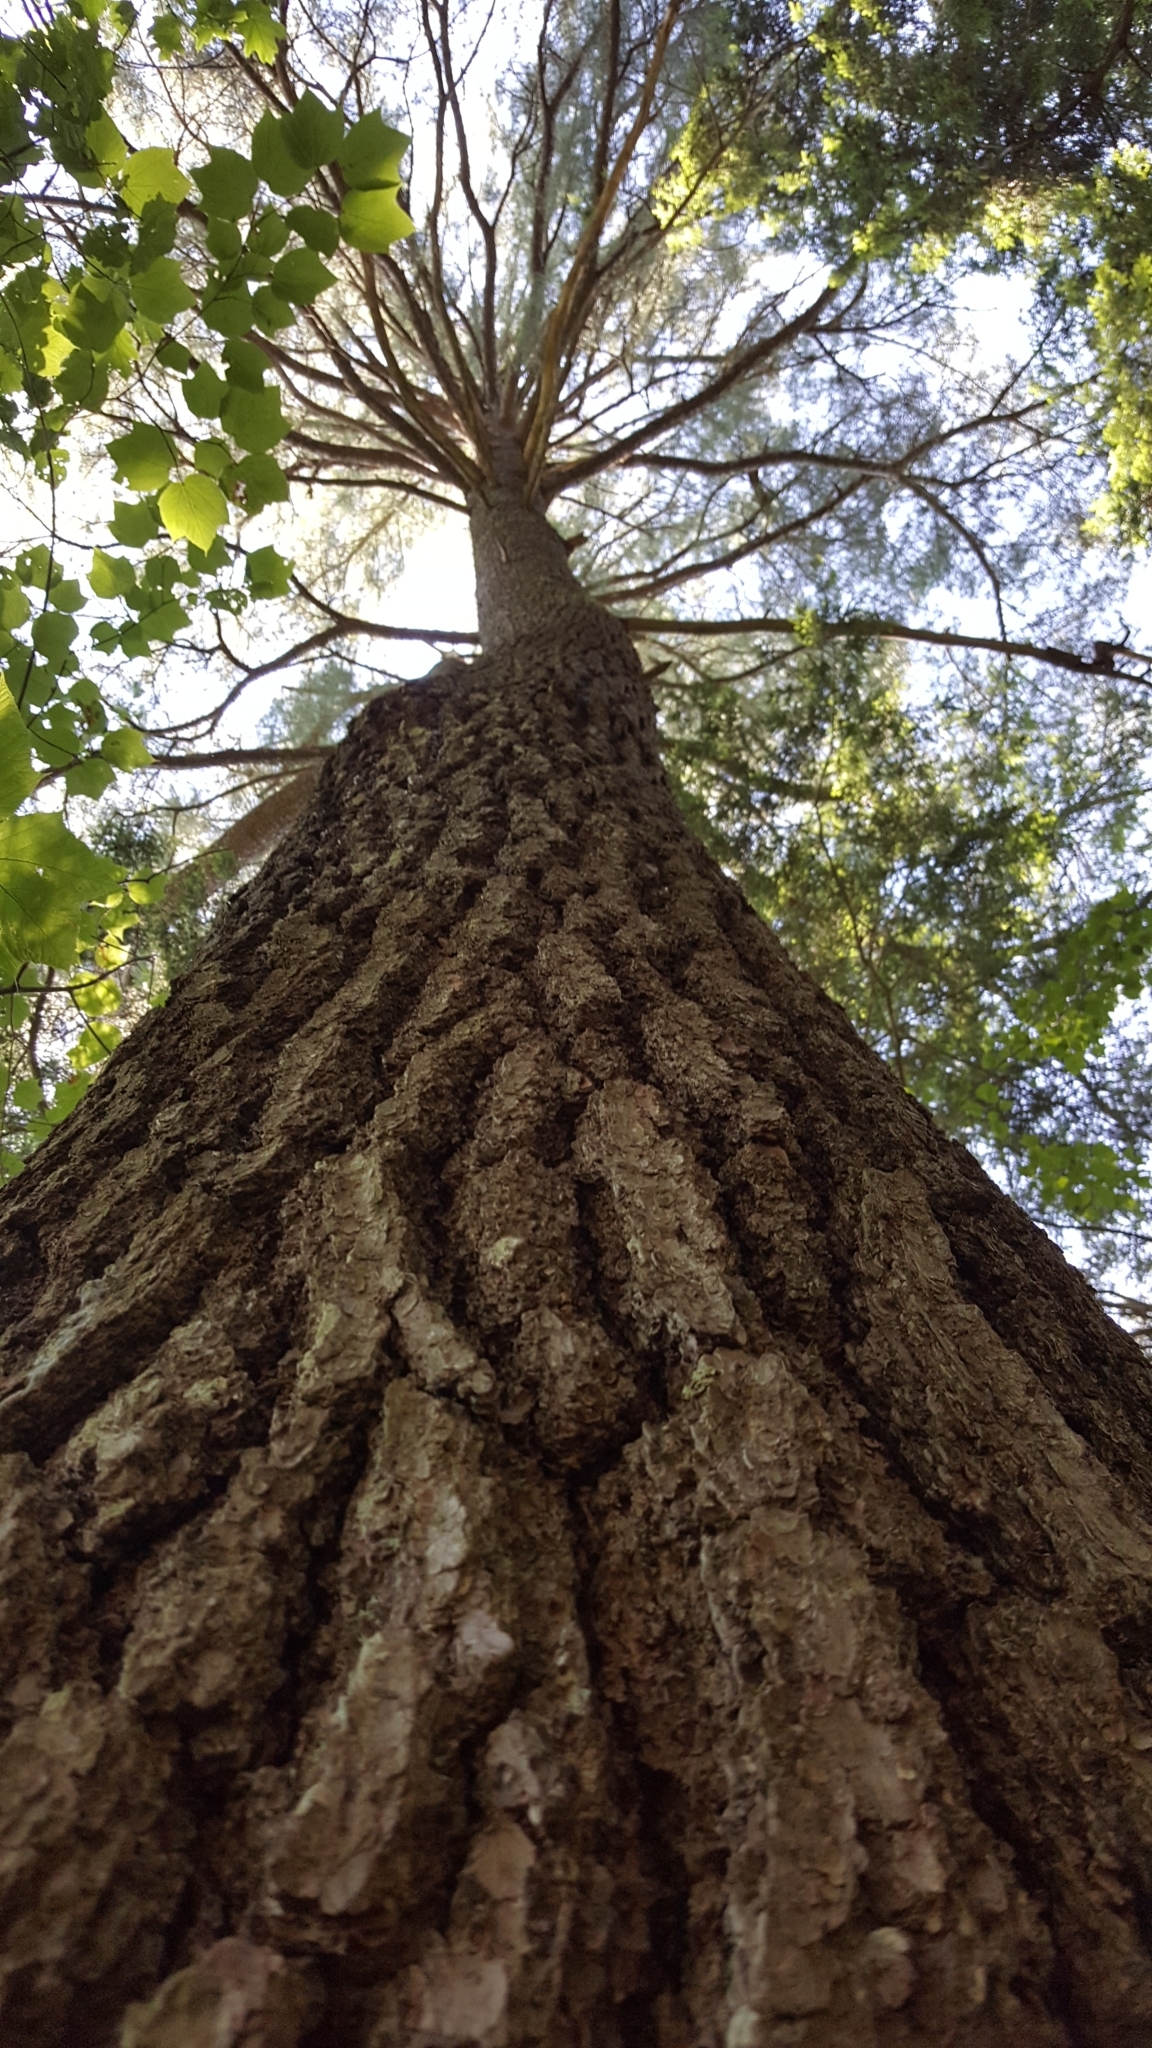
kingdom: Plantae
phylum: Tracheophyta
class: Pinopsida
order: Pinales
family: Pinaceae
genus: Pinus
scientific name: Pinus strobus
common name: Weymouth pine
